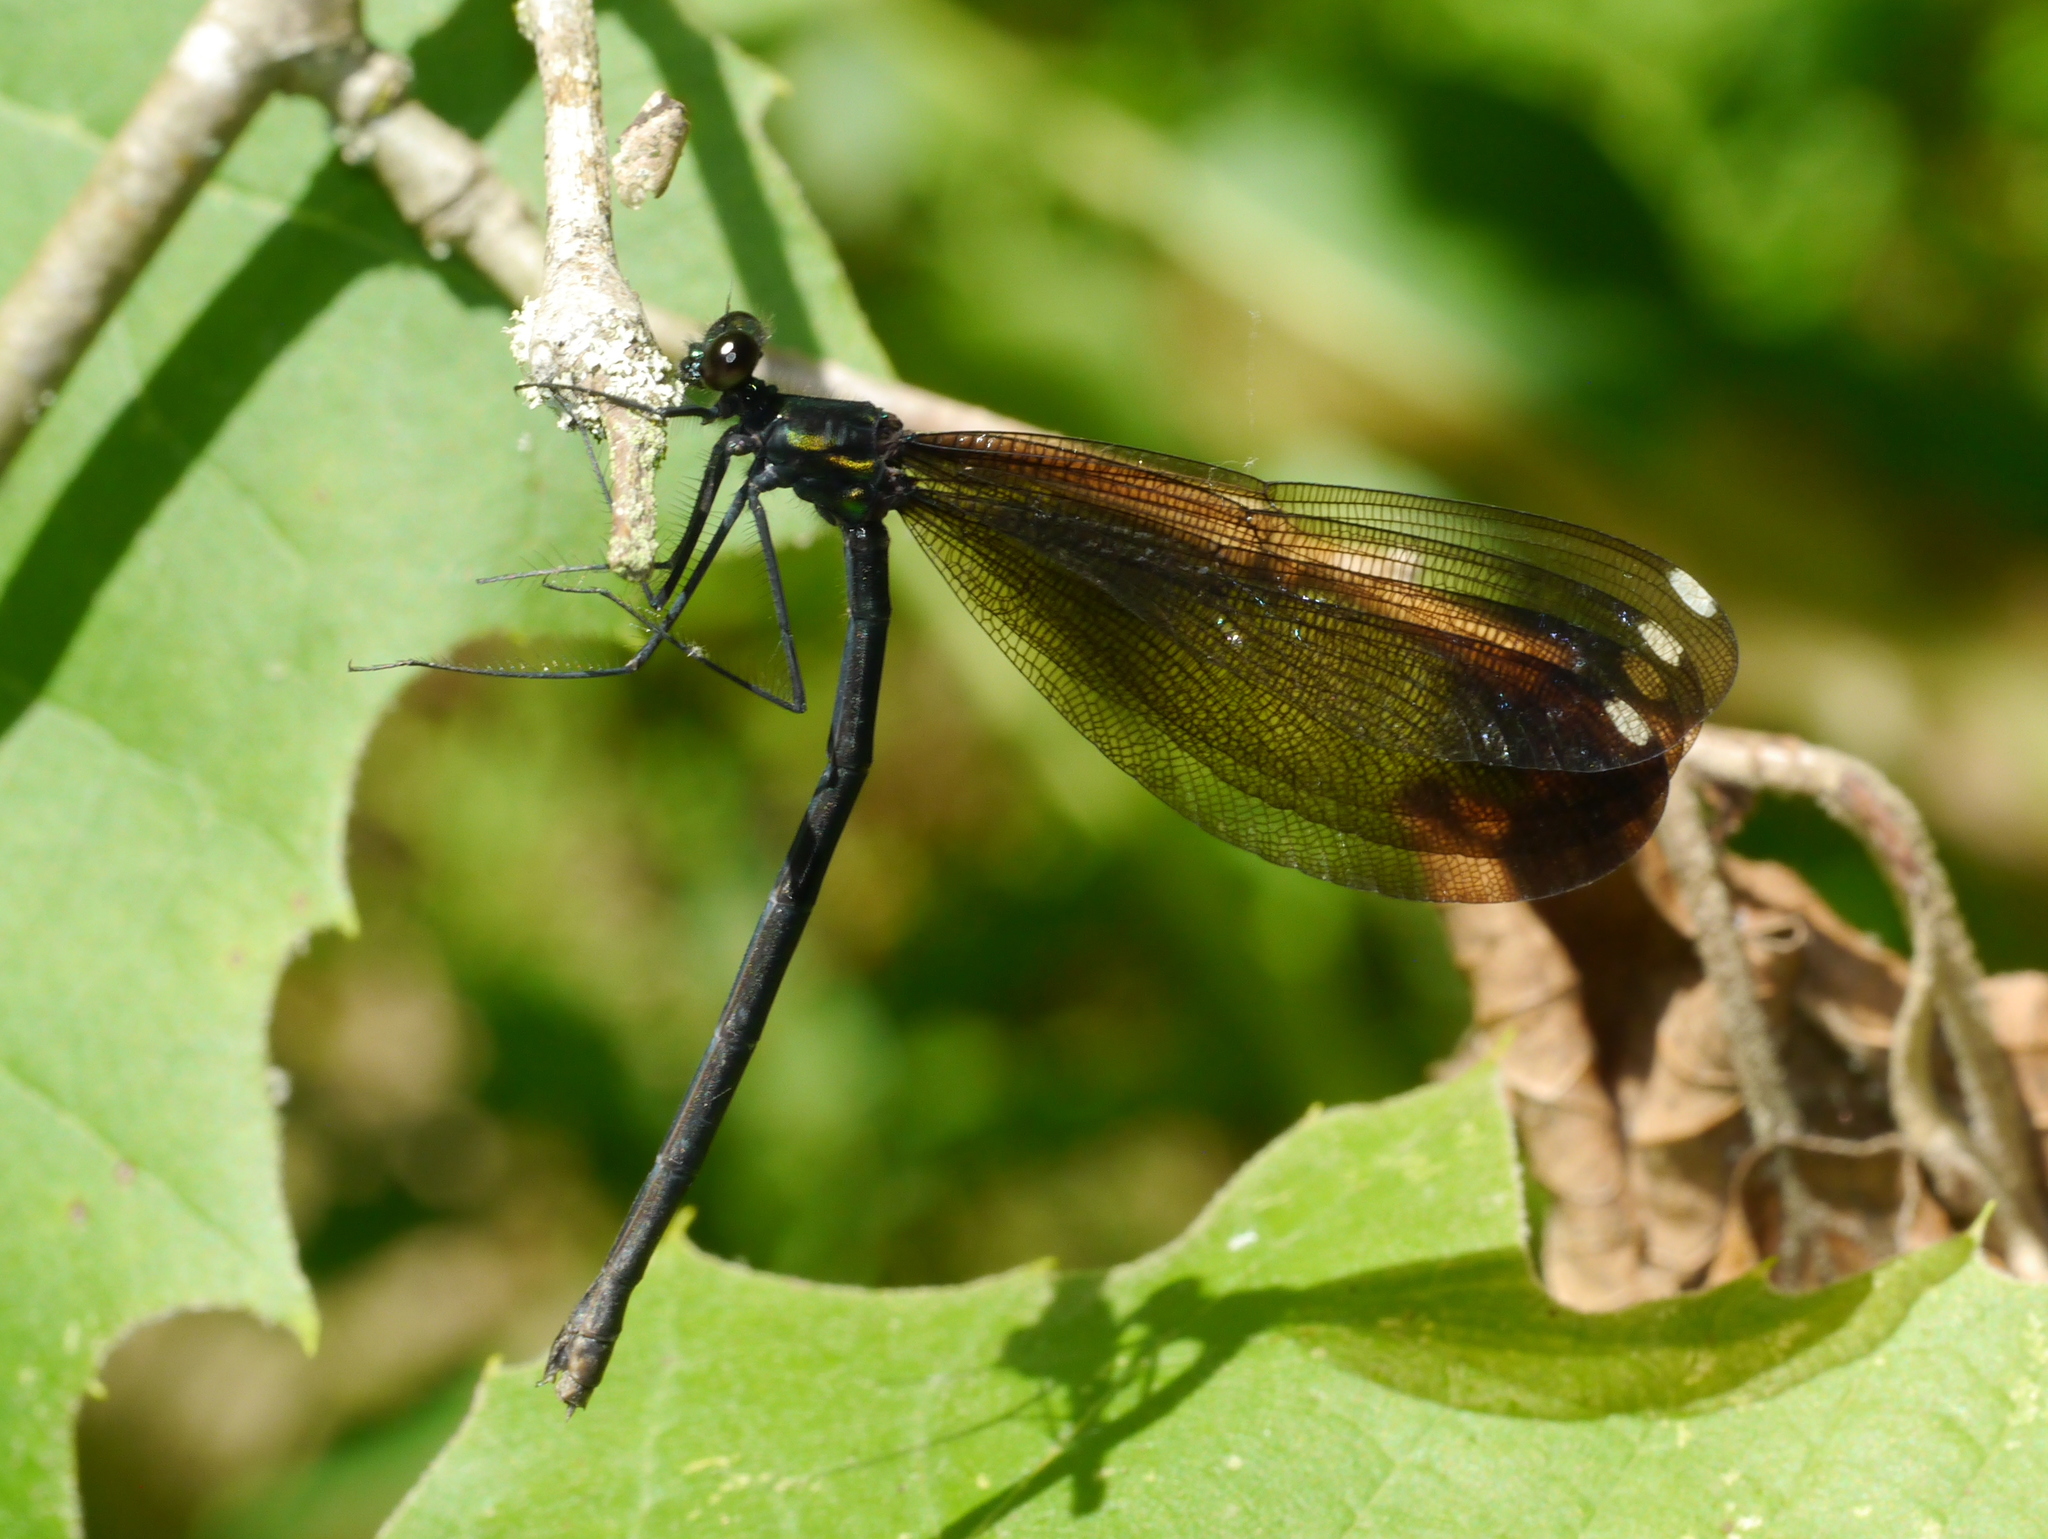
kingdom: Animalia
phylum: Arthropoda
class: Insecta
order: Odonata
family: Calopterygidae
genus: Calopteryx
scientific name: Calopteryx maculata
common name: Ebony jewelwing
